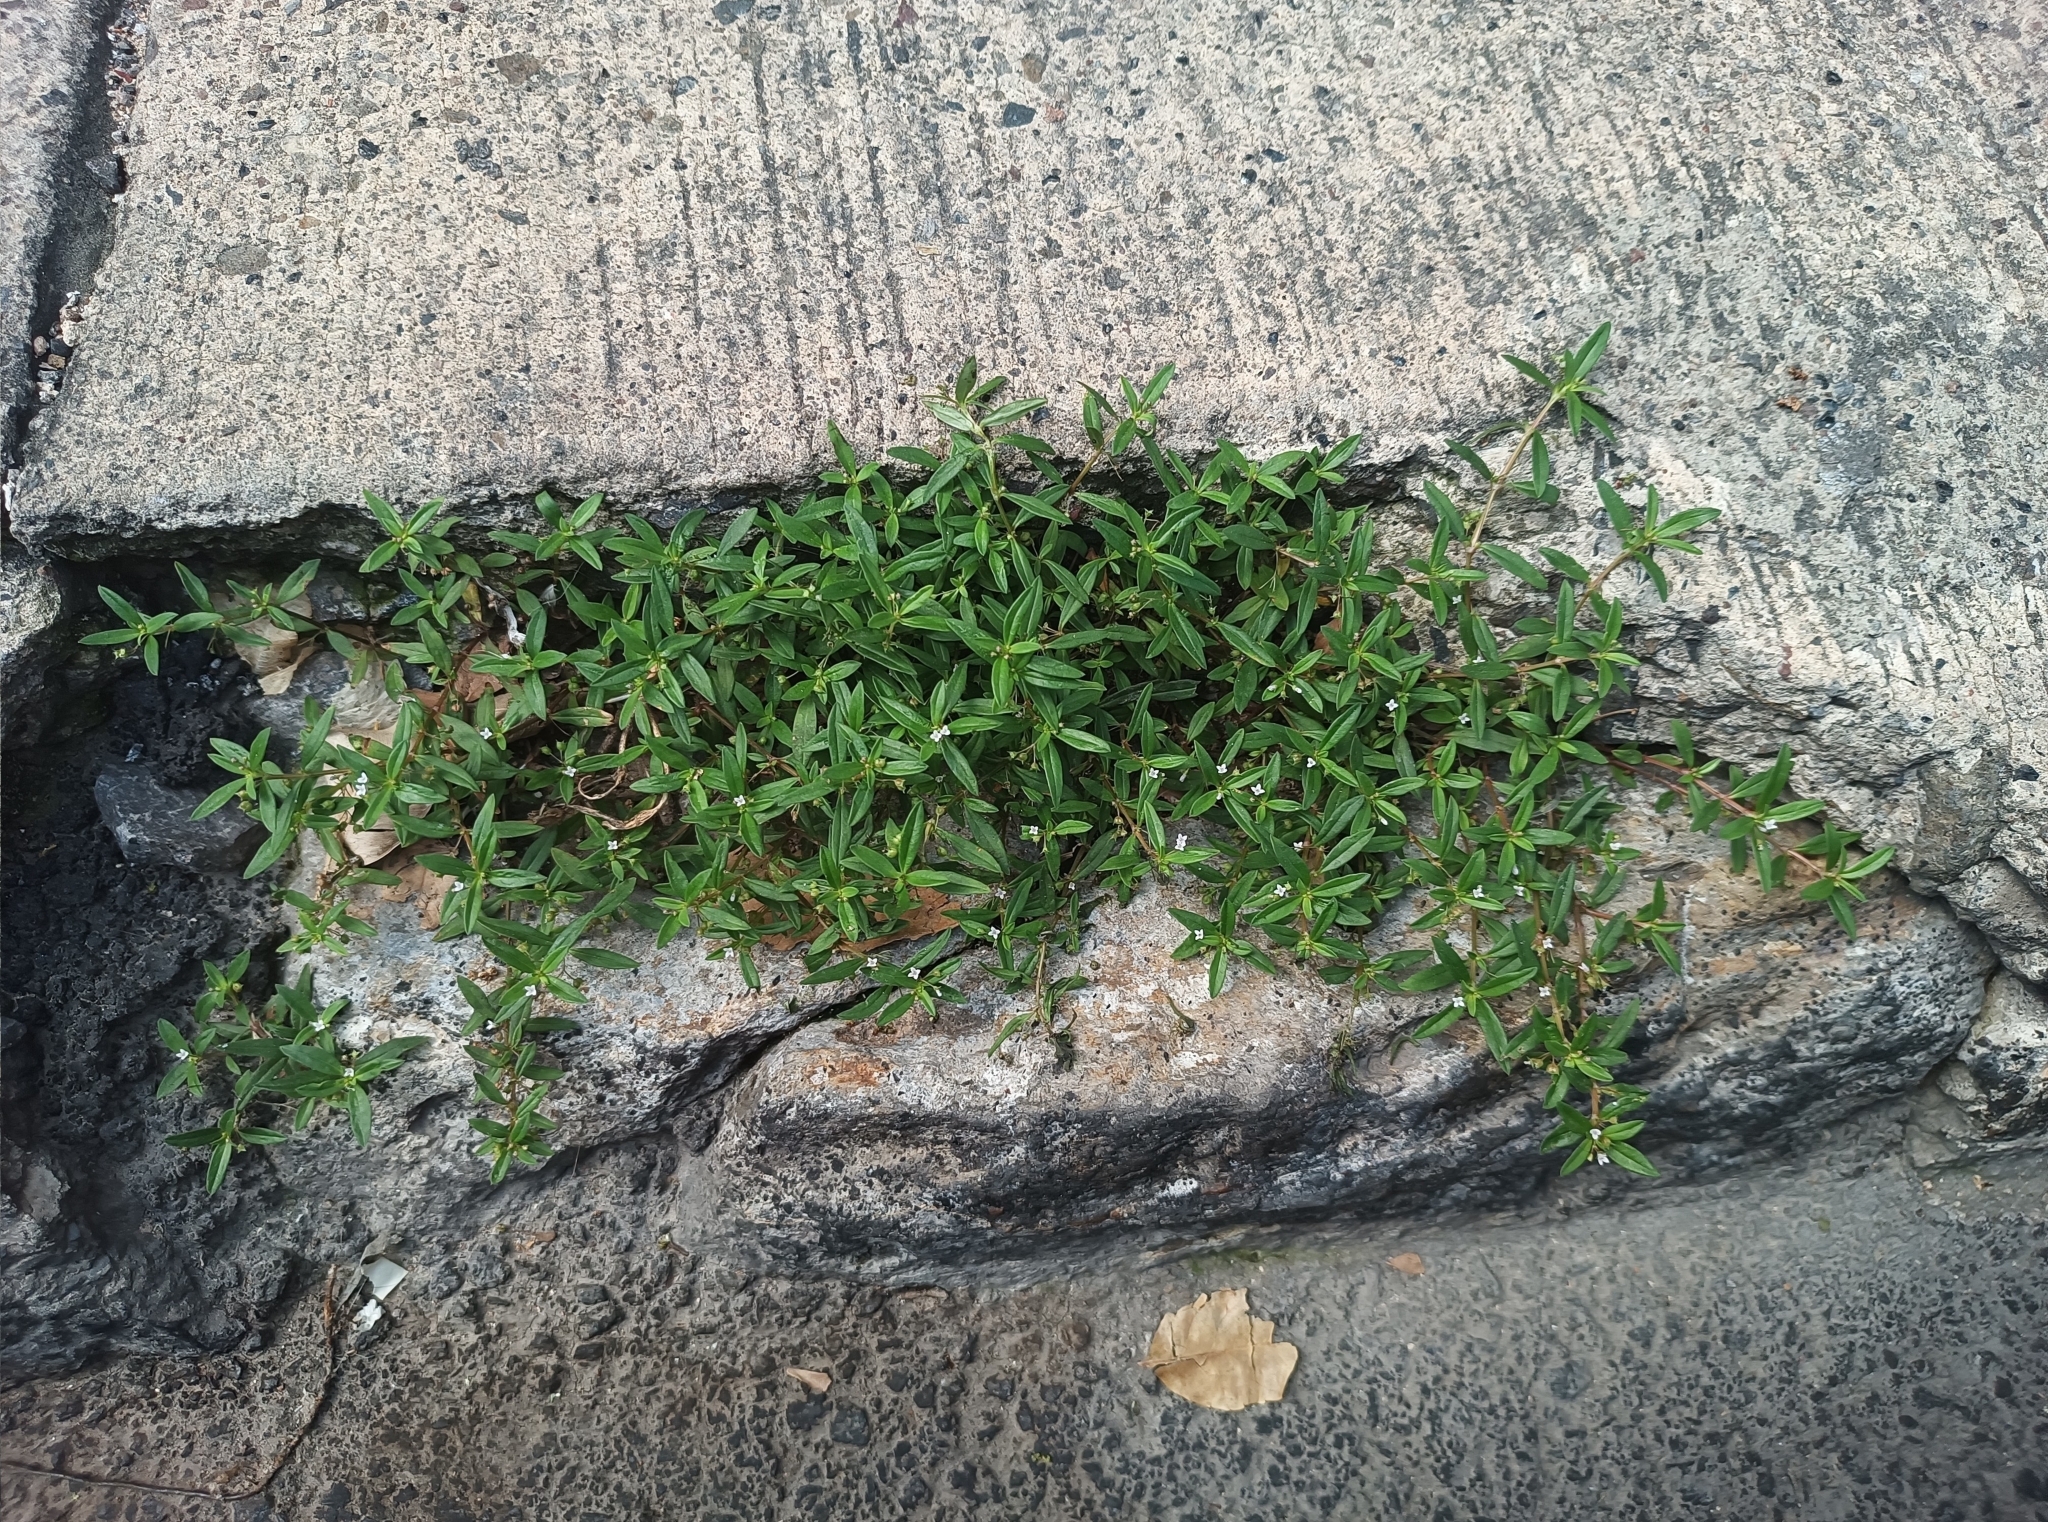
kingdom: Plantae
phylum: Tracheophyta
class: Magnoliopsida
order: Gentianales
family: Rubiaceae
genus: Oldenlandia
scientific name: Oldenlandia corymbosa
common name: Flat-top mille graines
